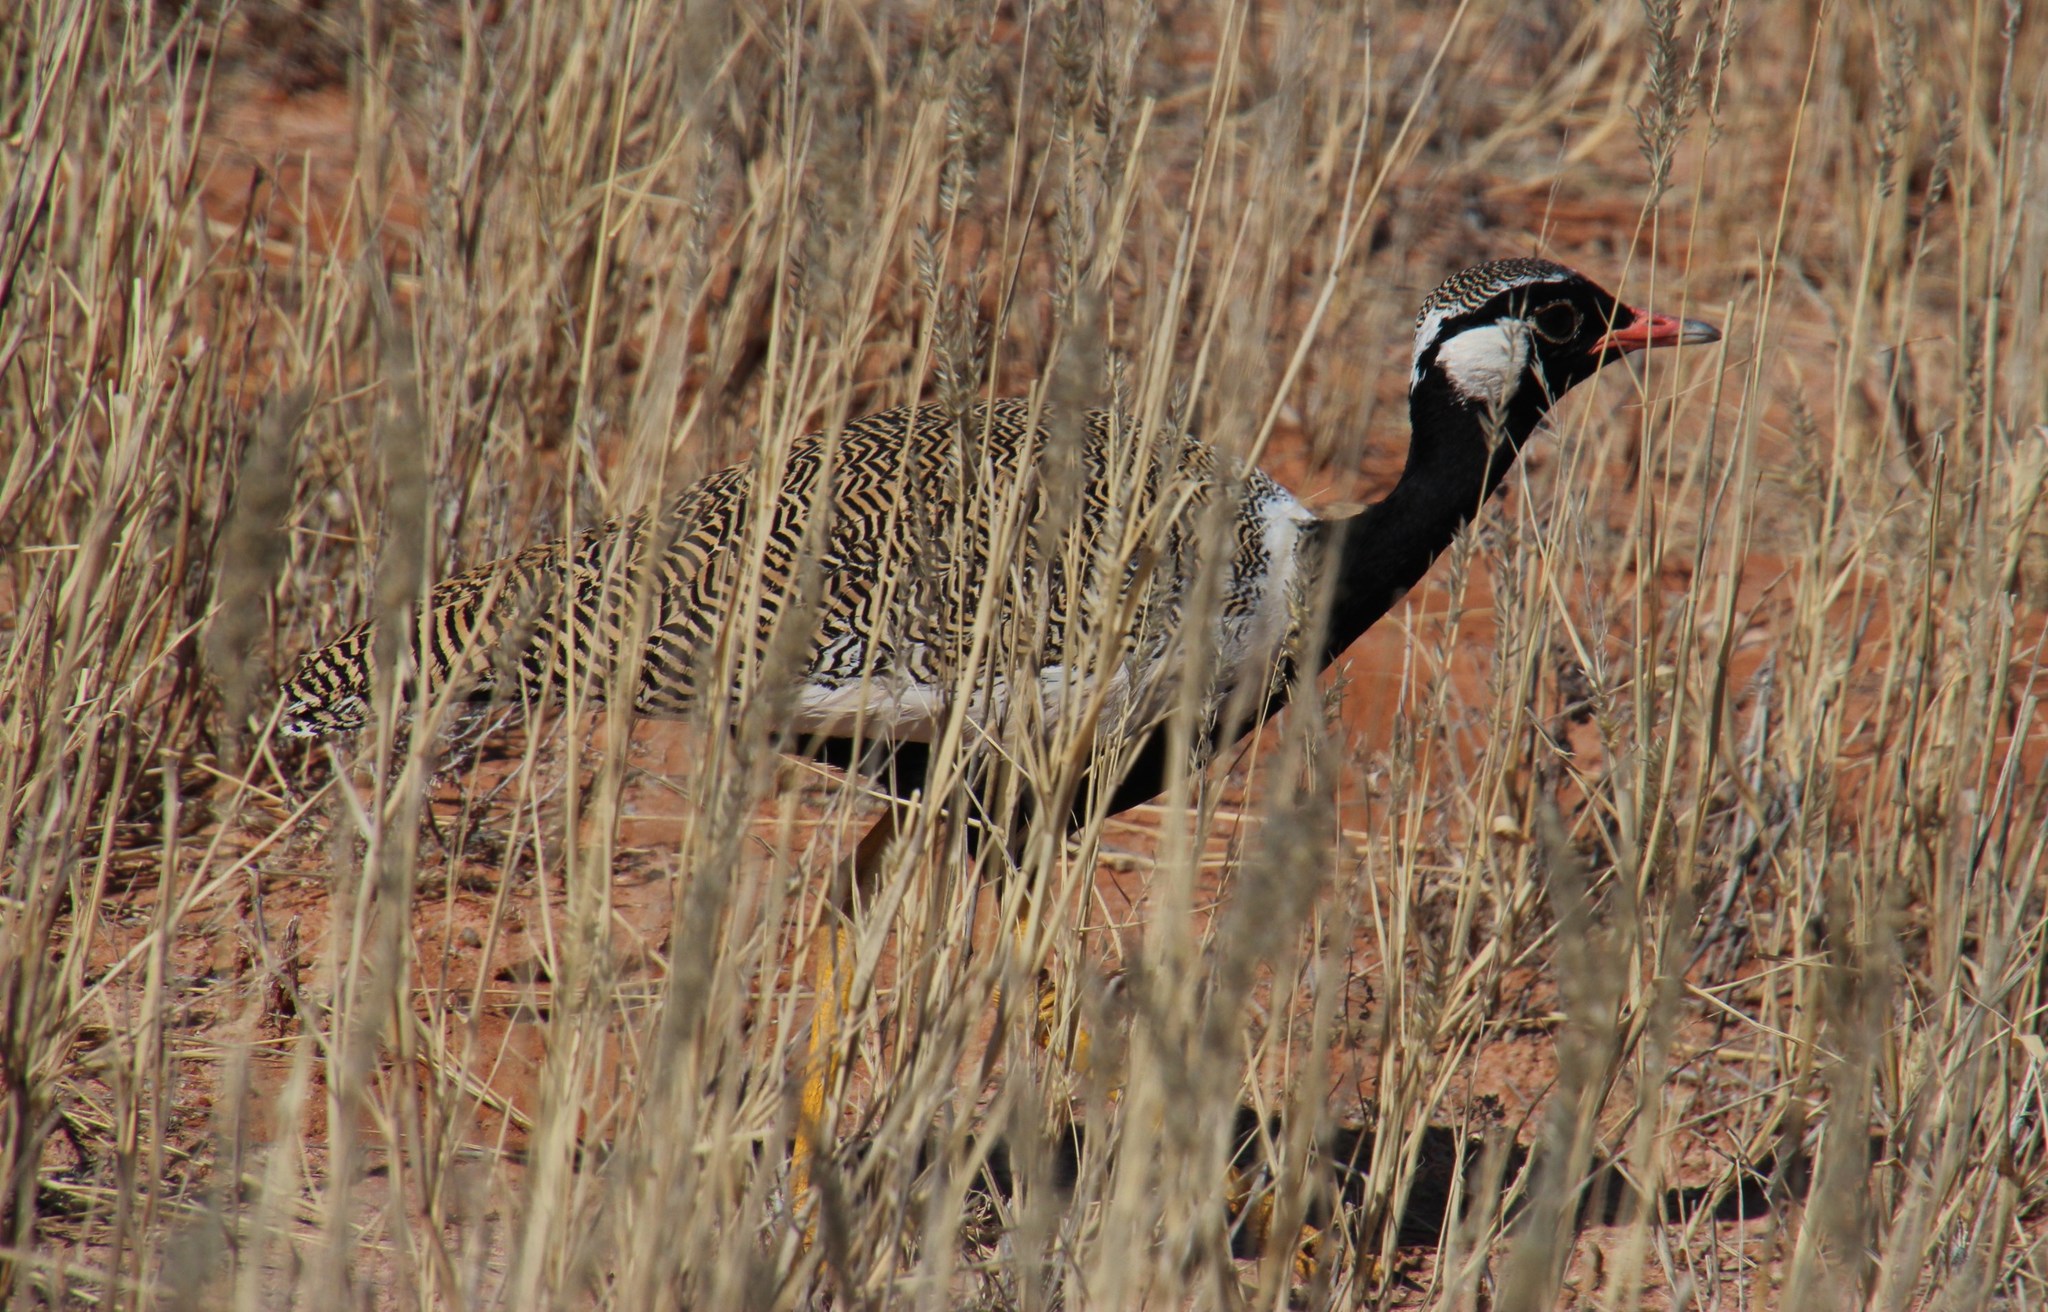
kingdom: Animalia
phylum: Chordata
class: Aves
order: Otidiformes
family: Otididae
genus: Afrotis
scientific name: Afrotis afraoides
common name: Northern black korhaan
